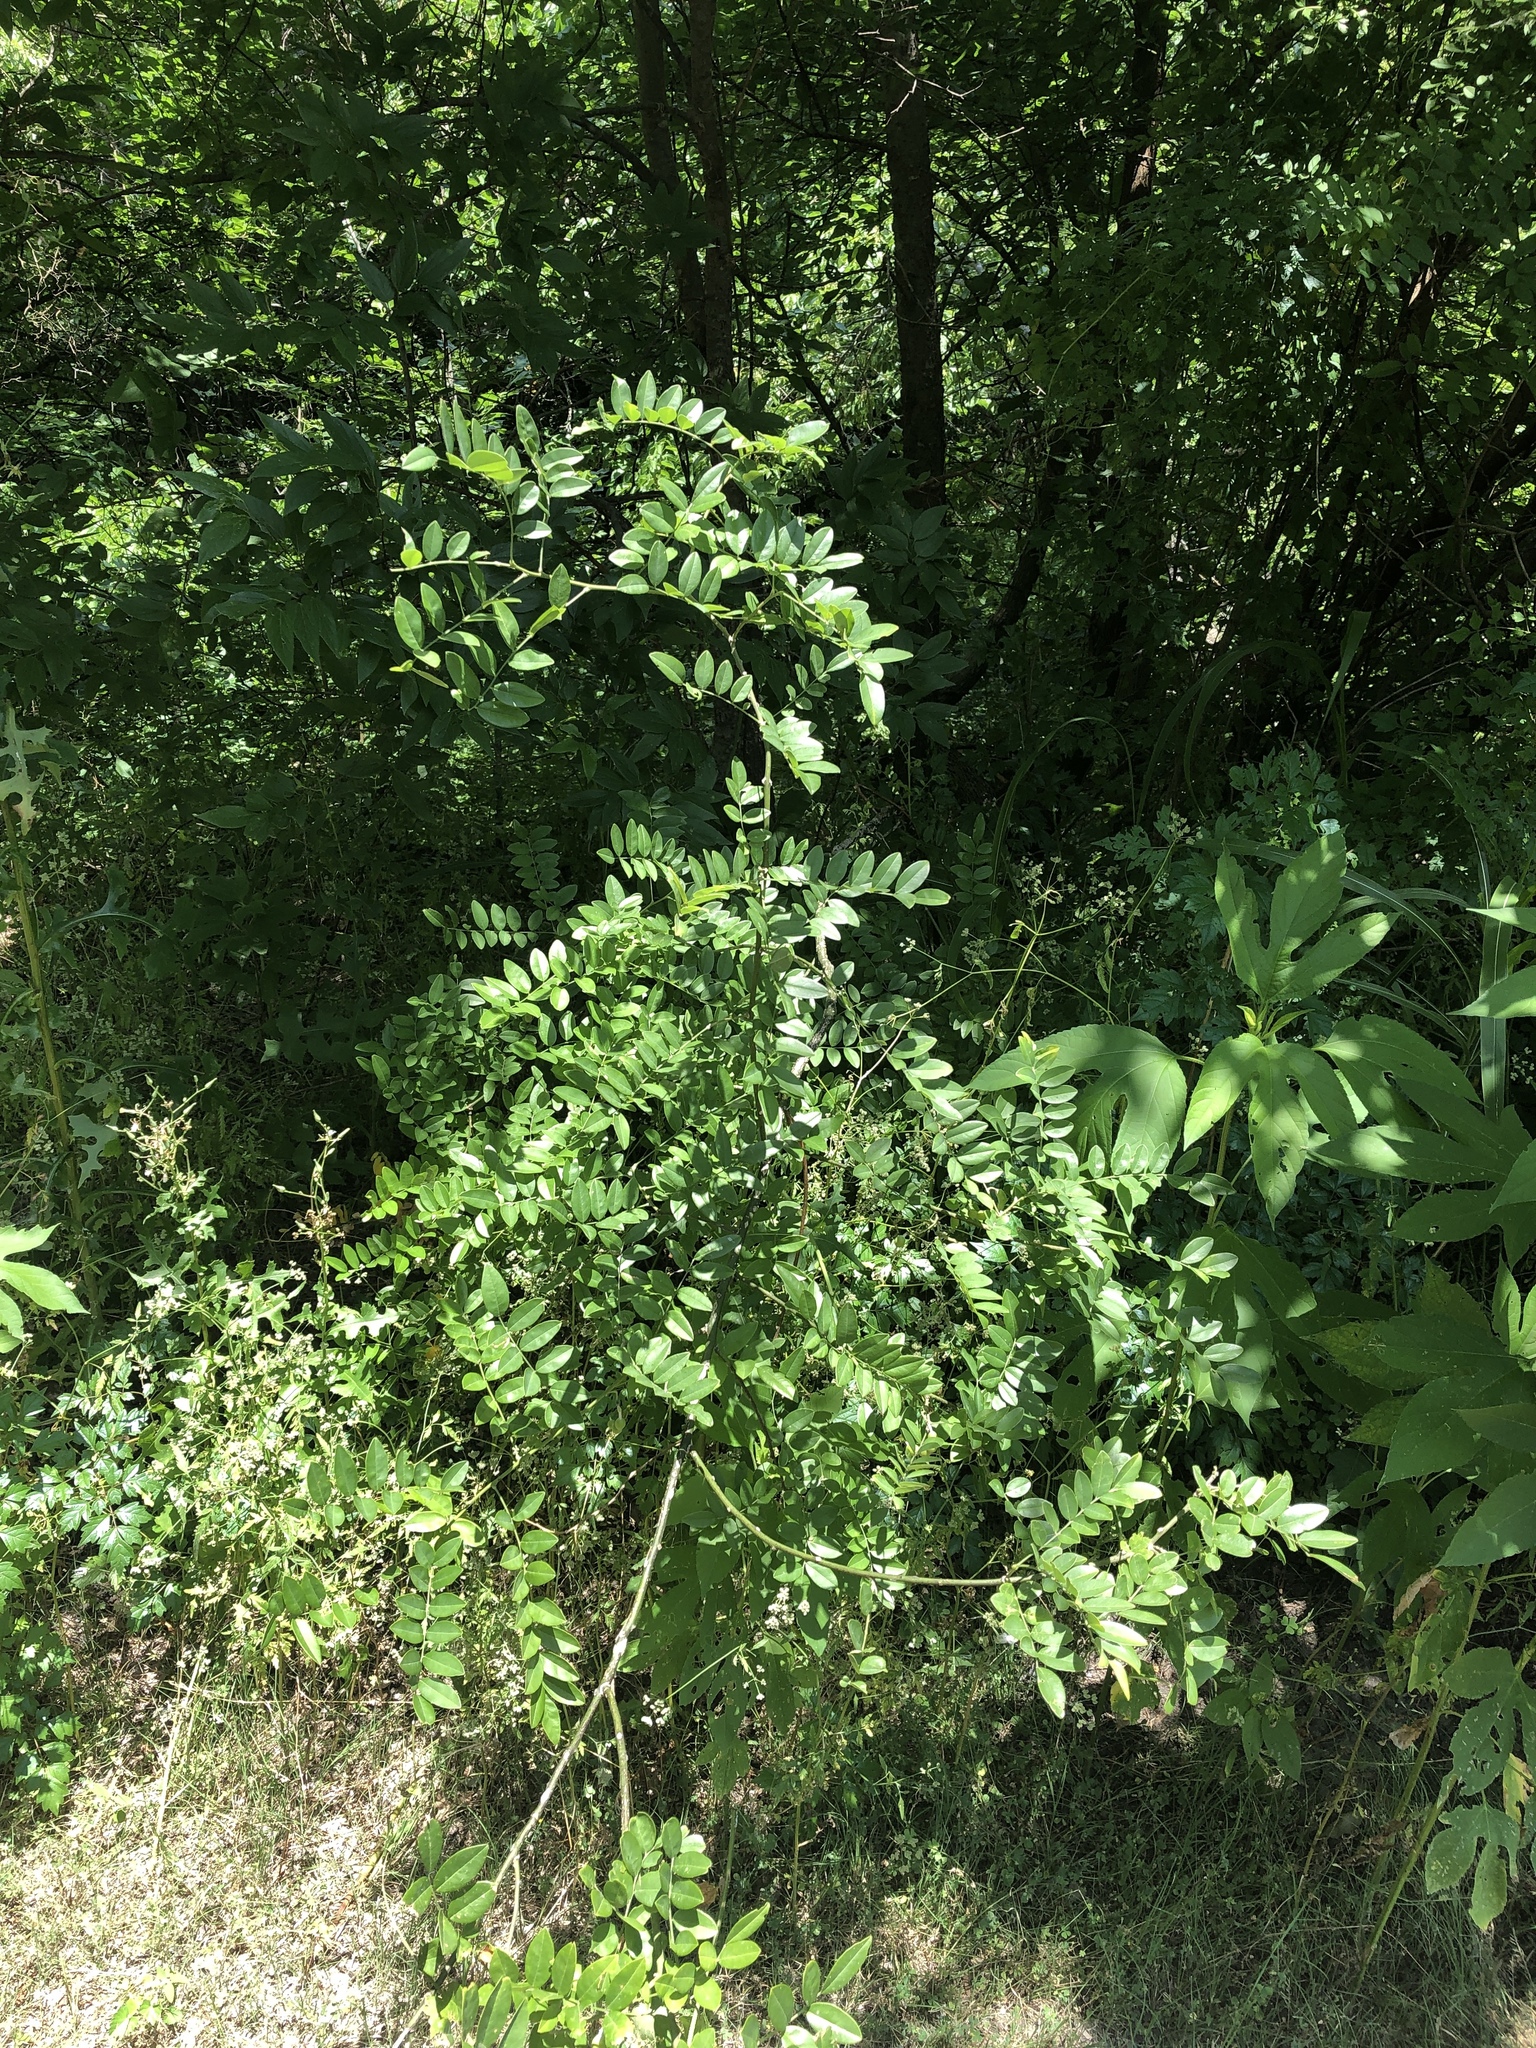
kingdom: Plantae
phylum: Tracheophyta
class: Magnoliopsida
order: Fabales
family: Fabaceae
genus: Styphnolobium
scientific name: Styphnolobium affine
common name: Texas sophora
